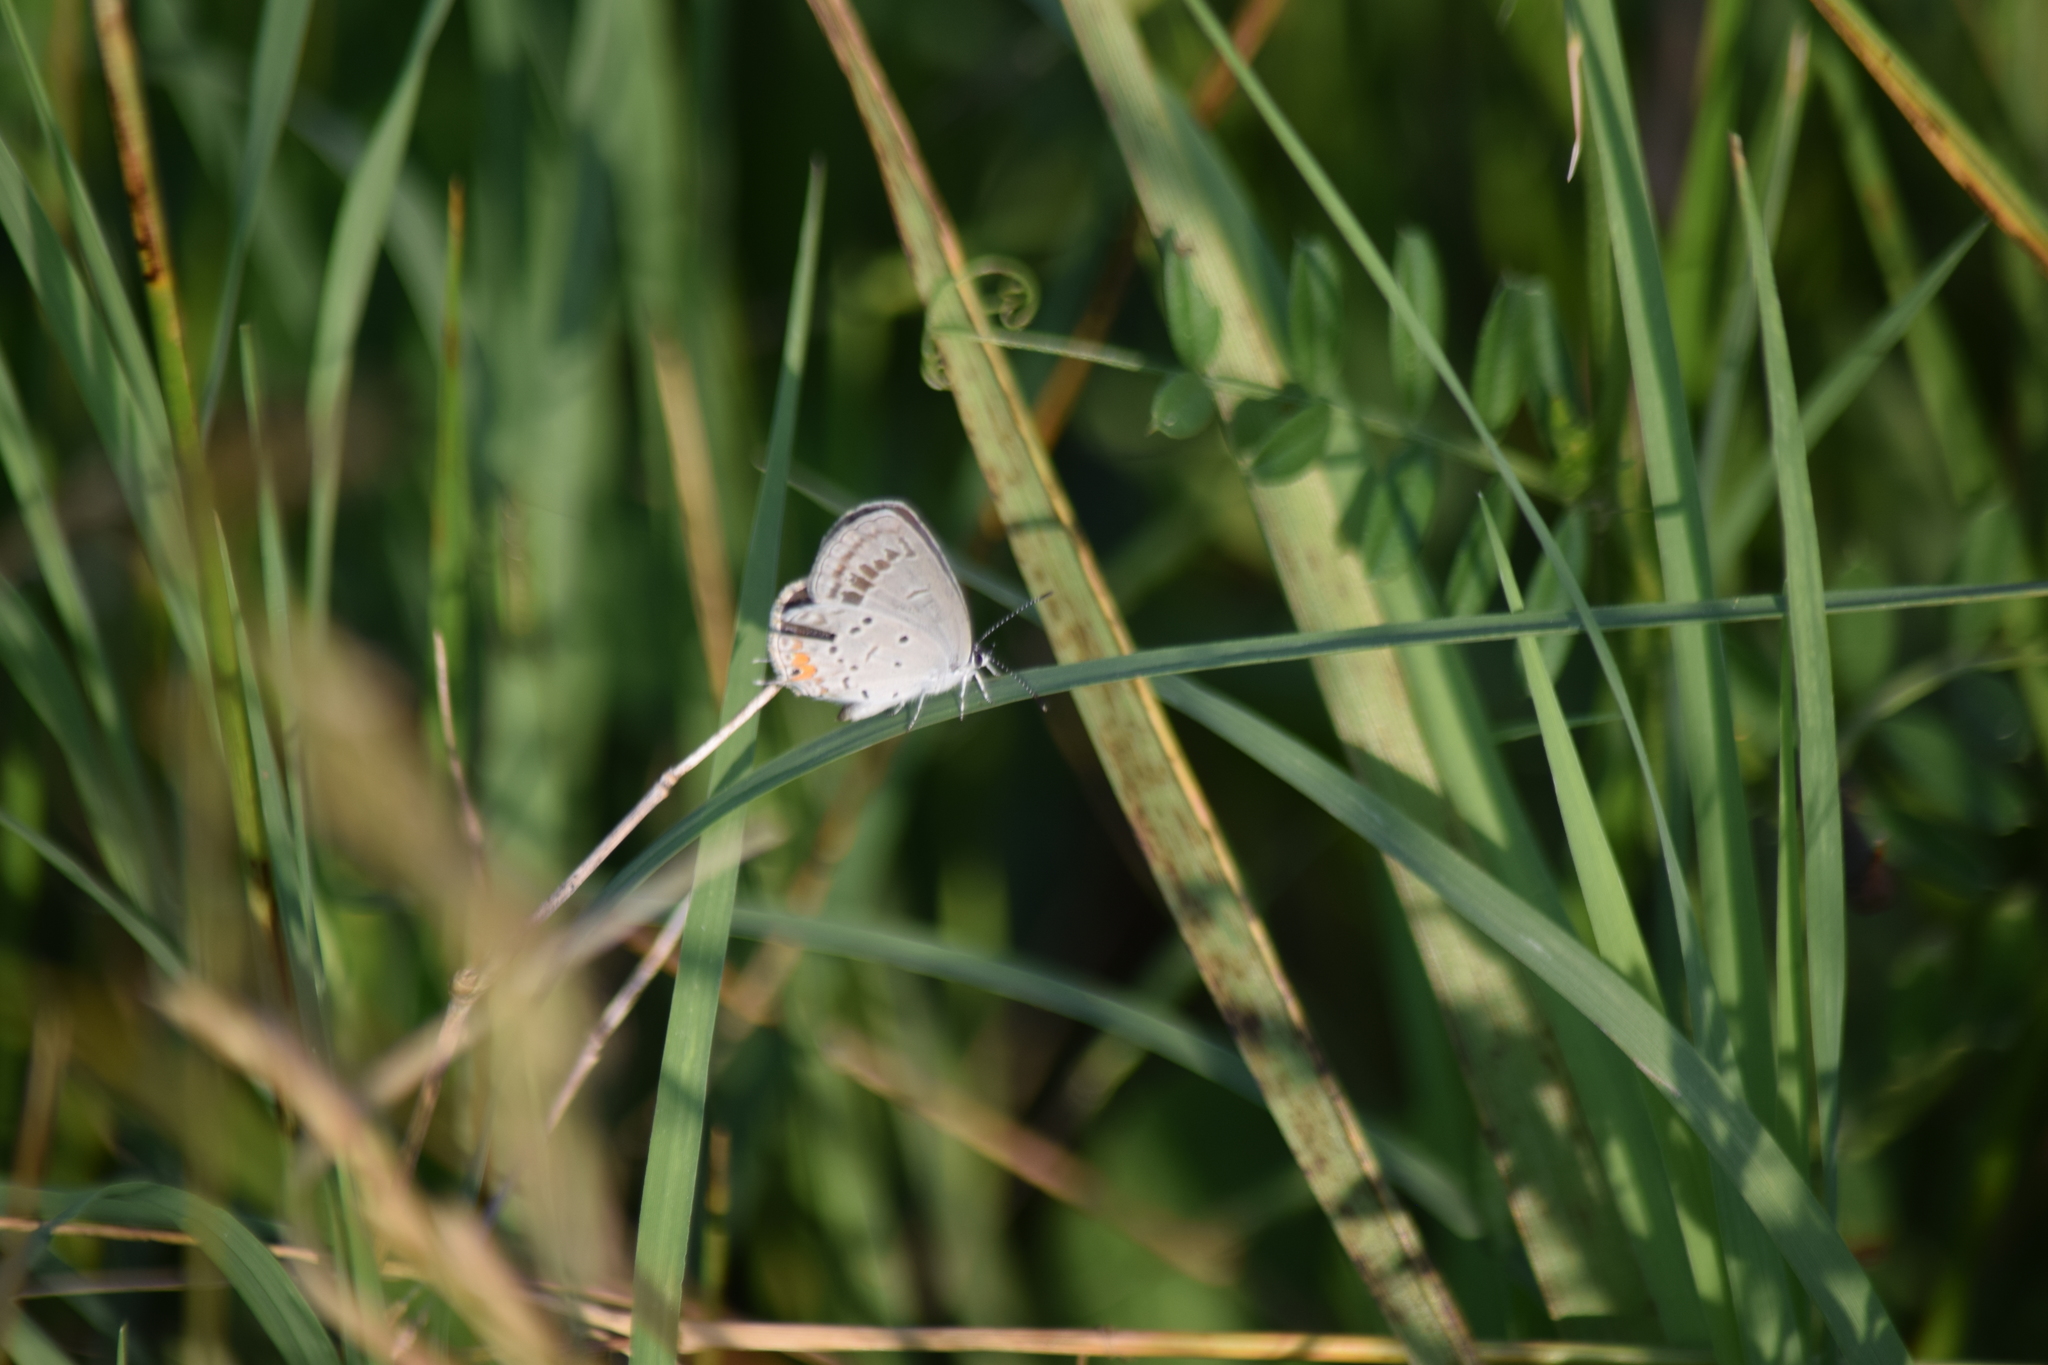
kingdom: Animalia
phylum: Arthropoda
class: Insecta
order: Lepidoptera
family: Lycaenidae
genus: Elkalyce
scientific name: Elkalyce comyntas
